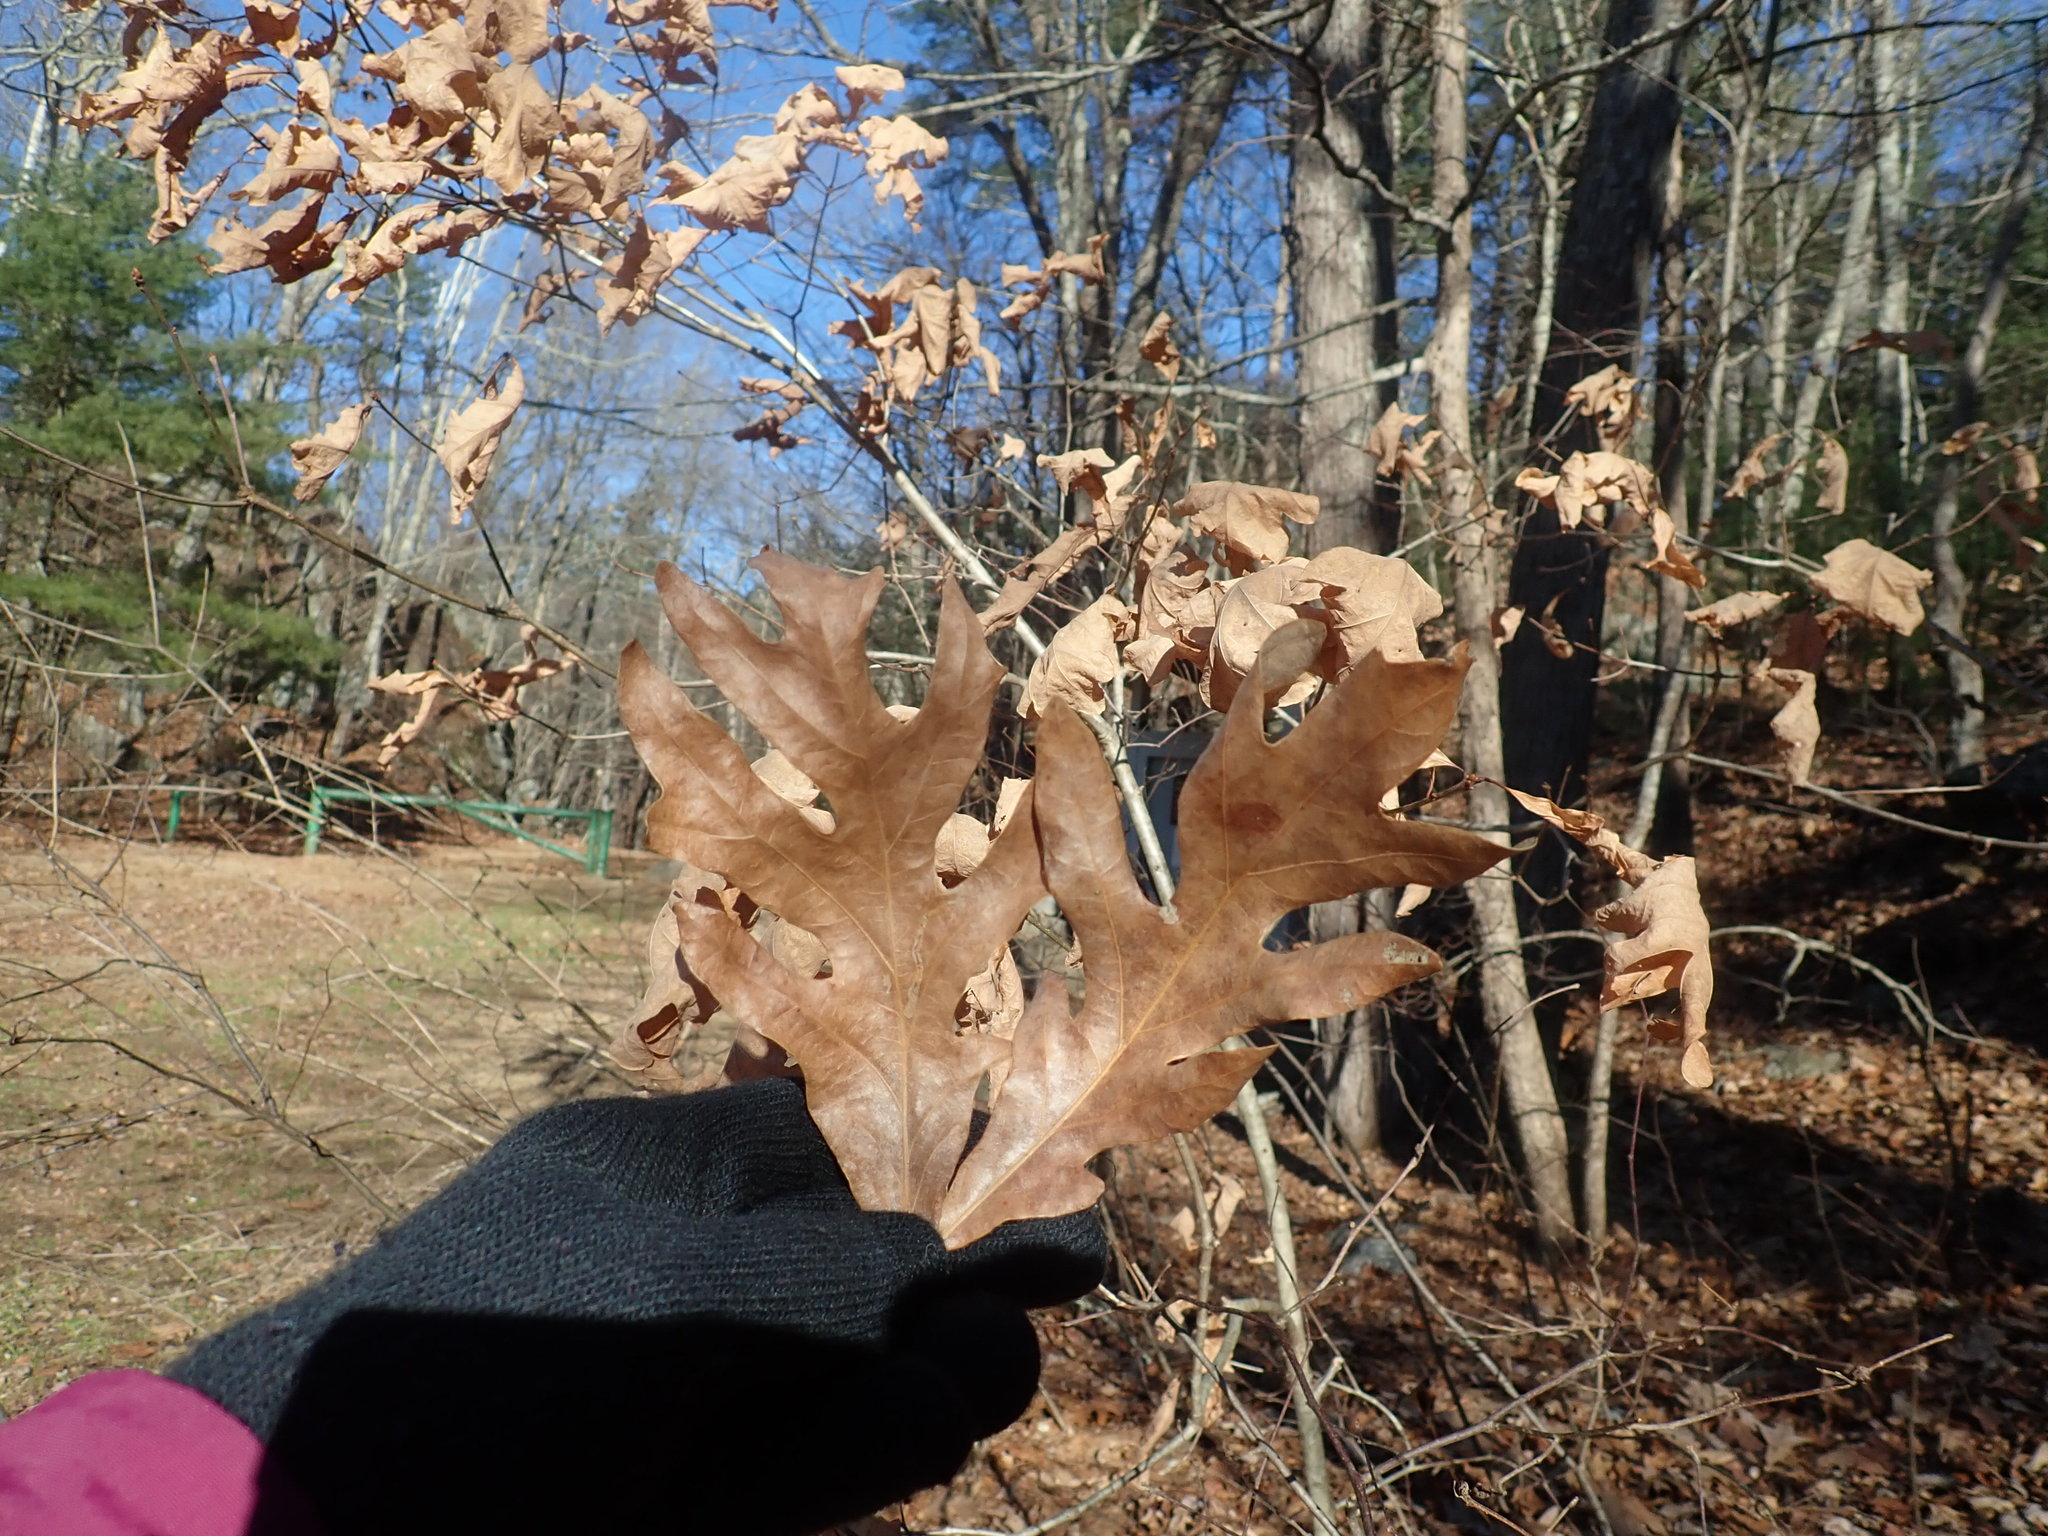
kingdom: Plantae
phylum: Tracheophyta
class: Magnoliopsida
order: Fagales
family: Fagaceae
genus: Quercus
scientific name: Quercus alba
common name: White oak
